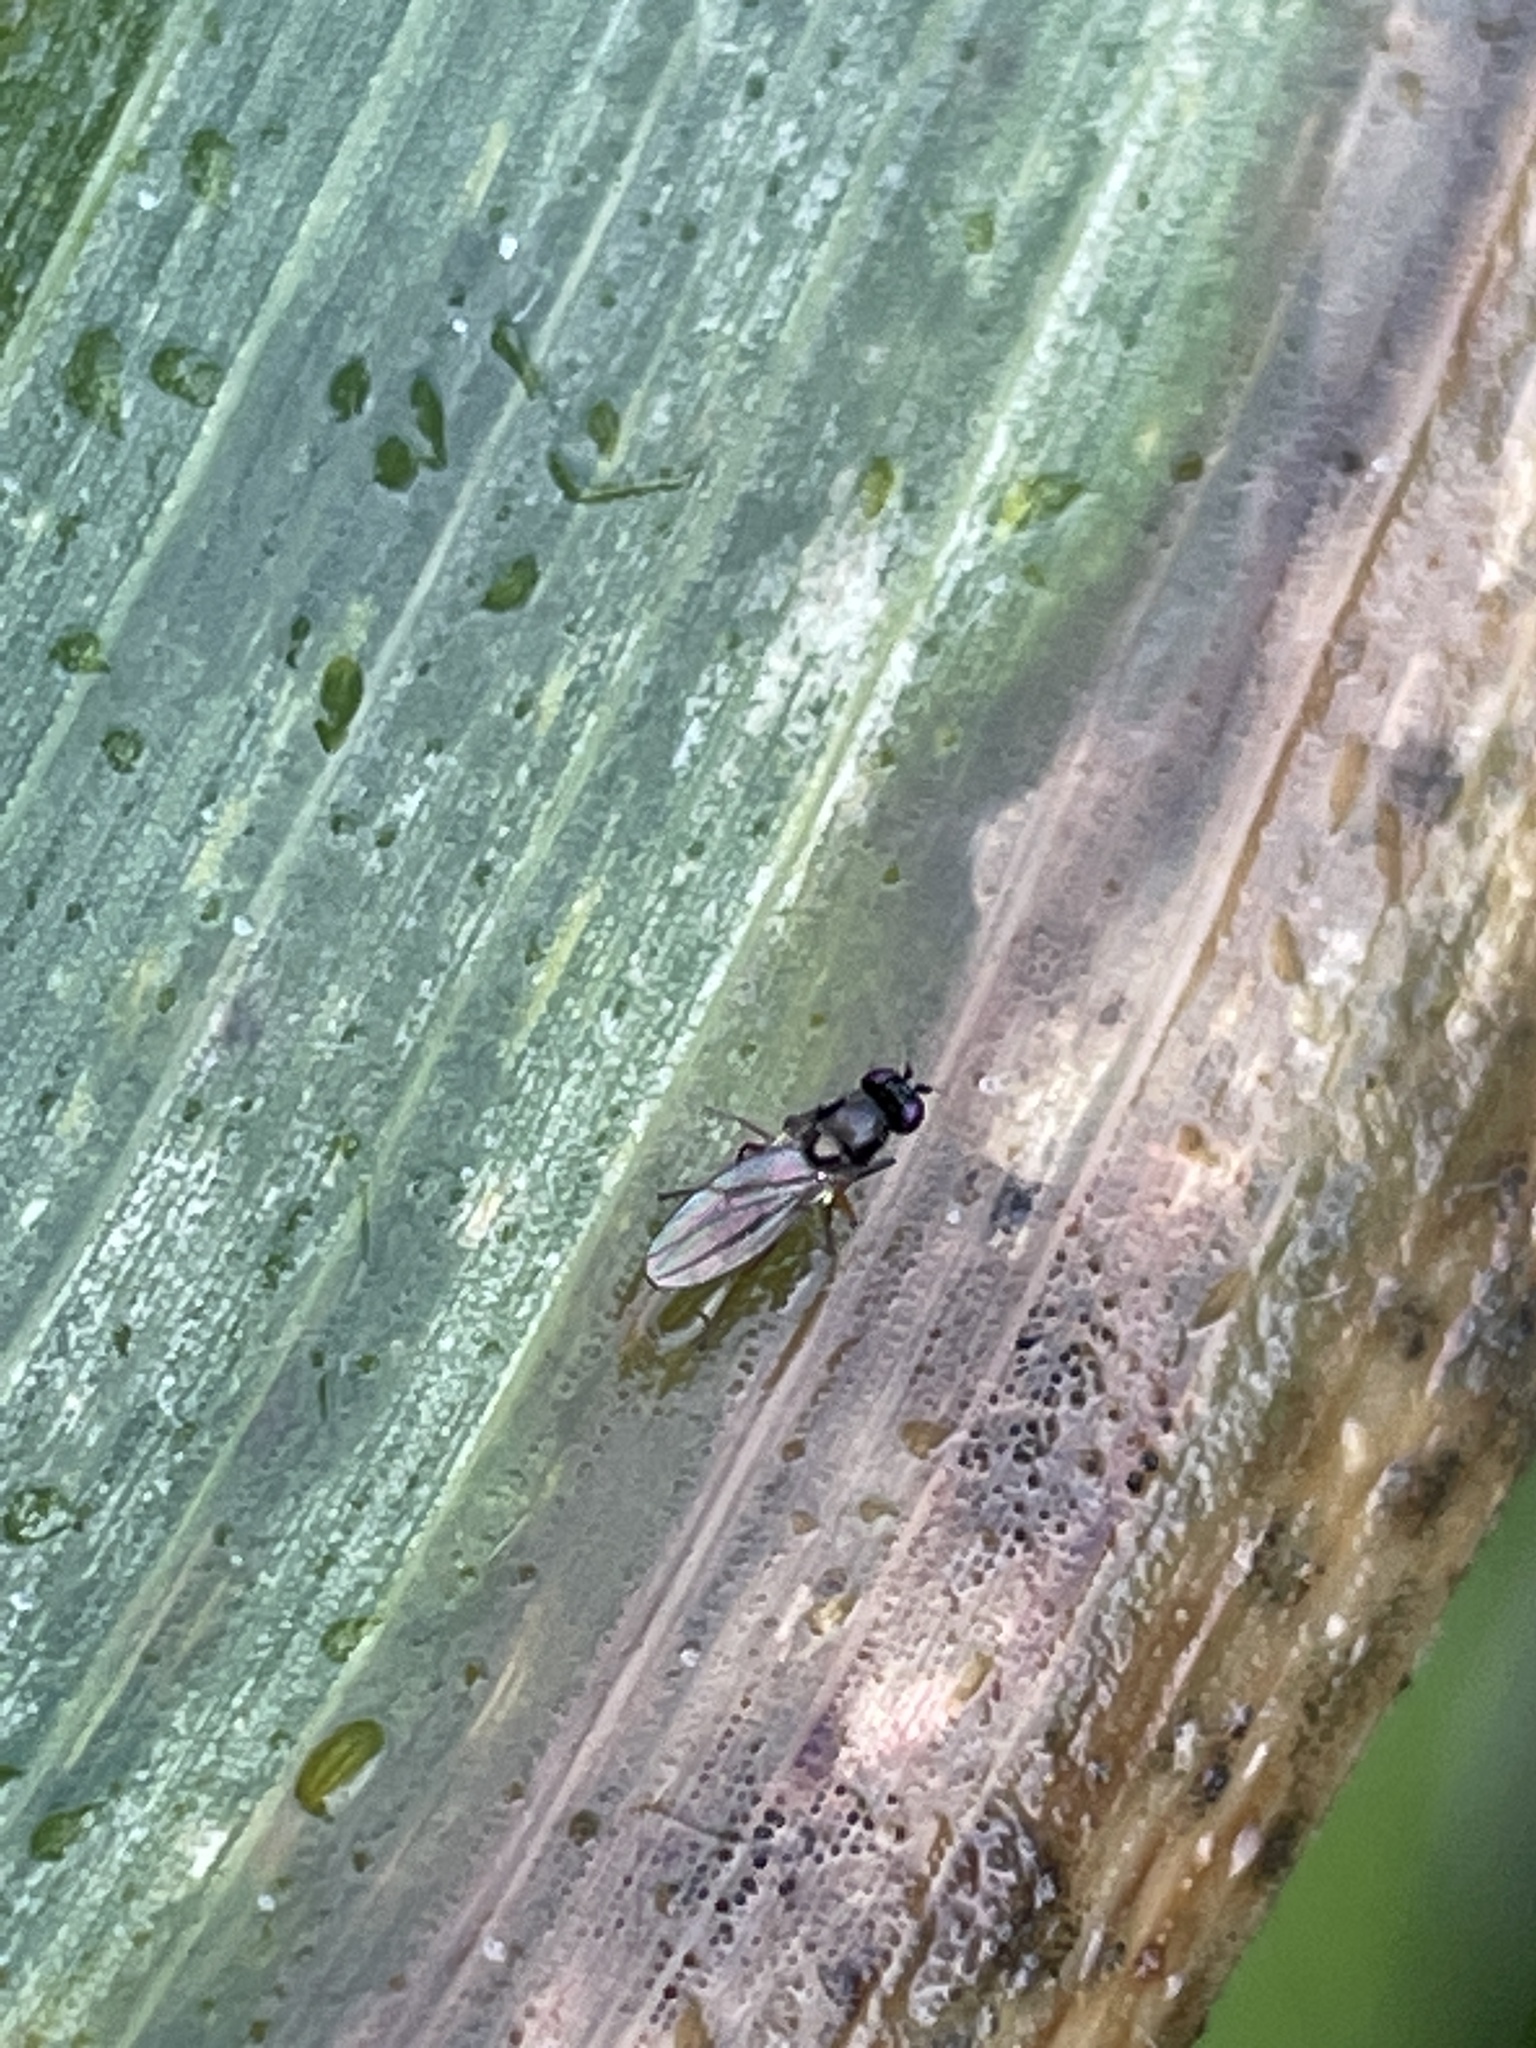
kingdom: Animalia
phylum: Arthropoda
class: Insecta
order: Diptera
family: Ephydridae
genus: Hydrellia
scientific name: Hydrellia tritici
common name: Shore fly
